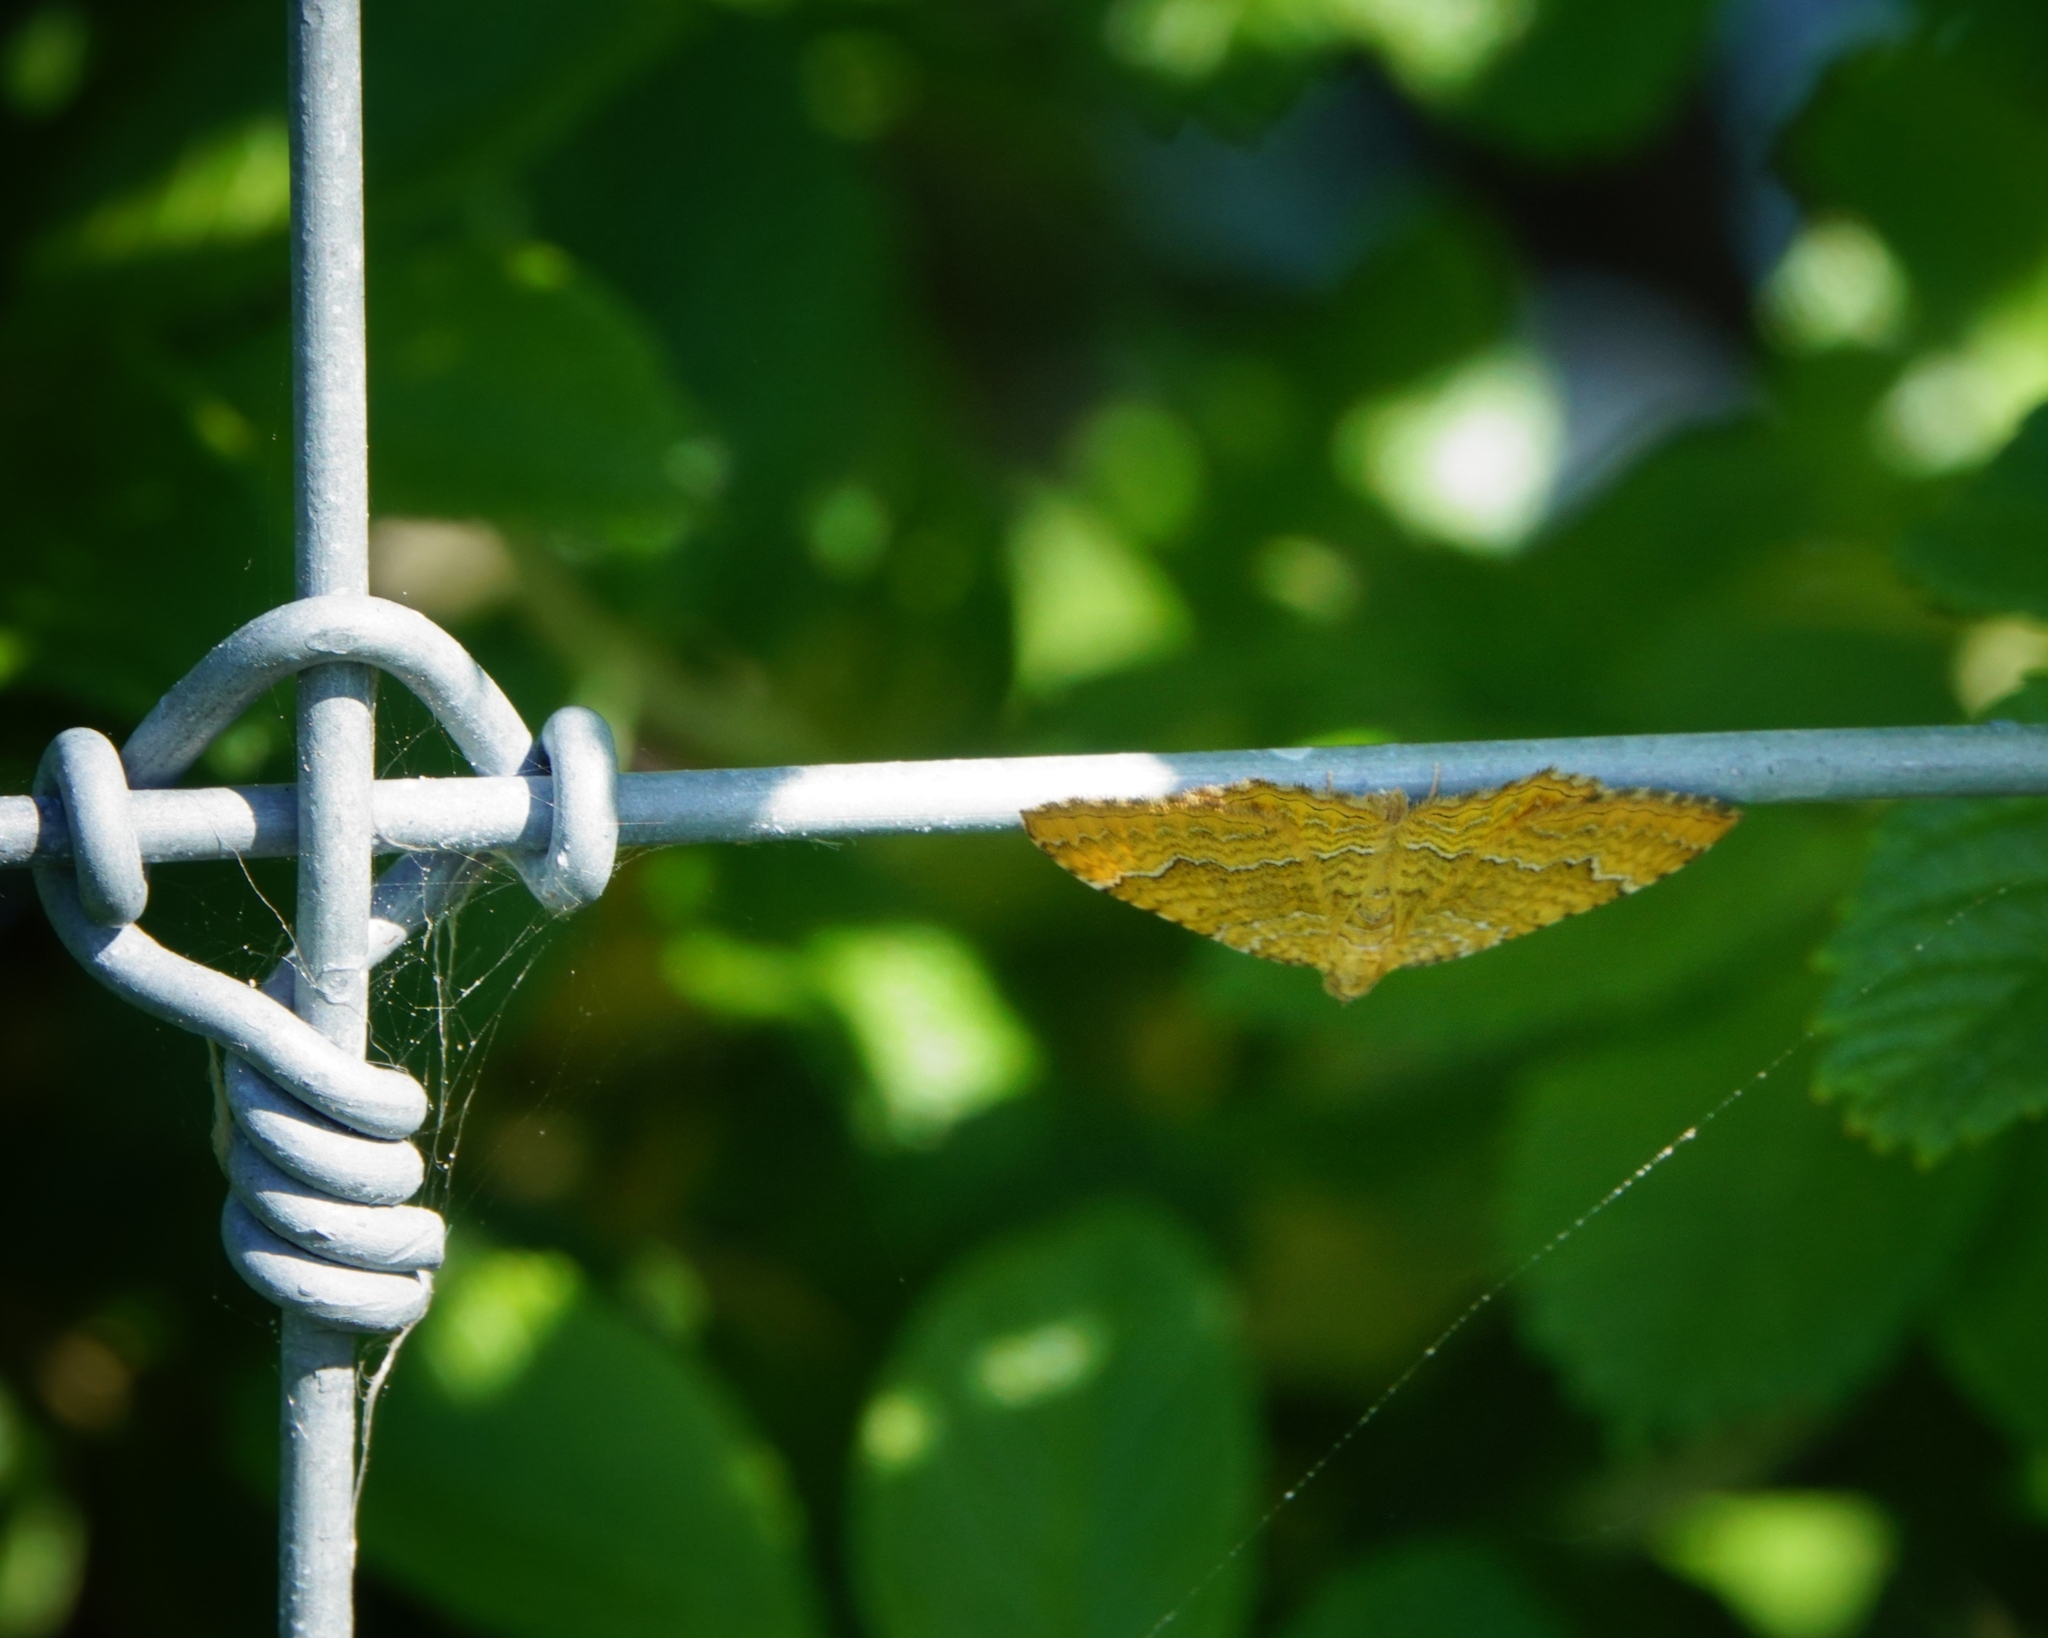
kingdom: Animalia
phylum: Arthropoda
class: Insecta
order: Lepidoptera
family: Geometridae
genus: Camptogramma
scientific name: Camptogramma bilineata
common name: Yellow shell
